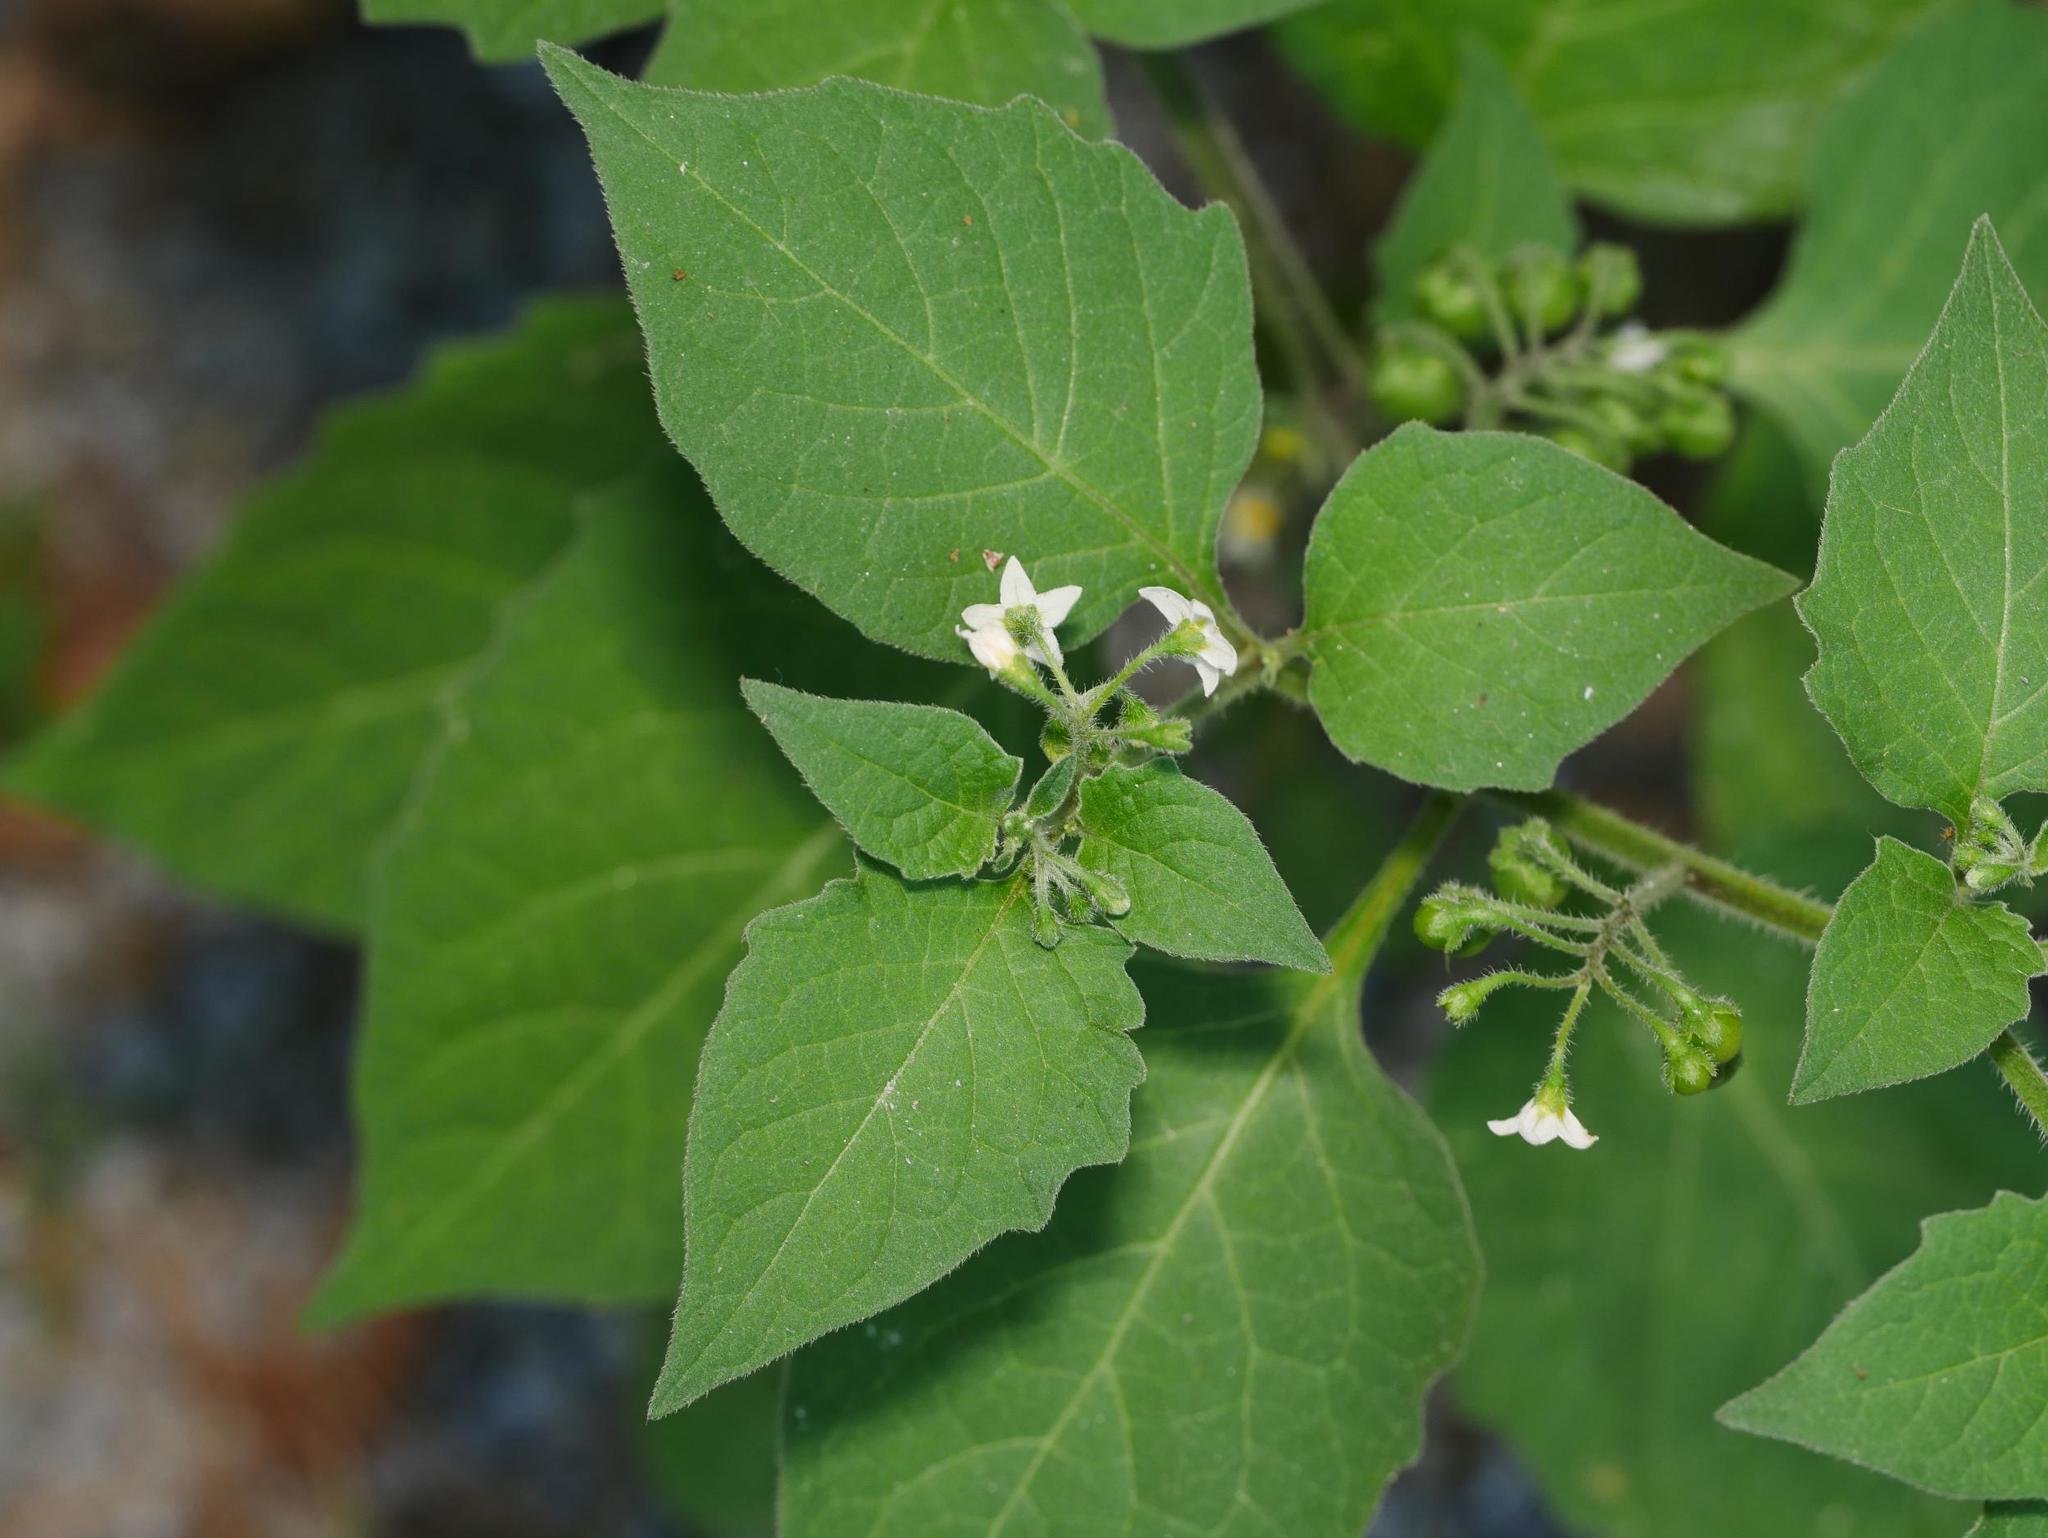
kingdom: Plantae
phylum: Tracheophyta
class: Magnoliopsida
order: Solanales
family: Solanaceae
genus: Solanum
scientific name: Solanum nigrum
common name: Black nightshade
